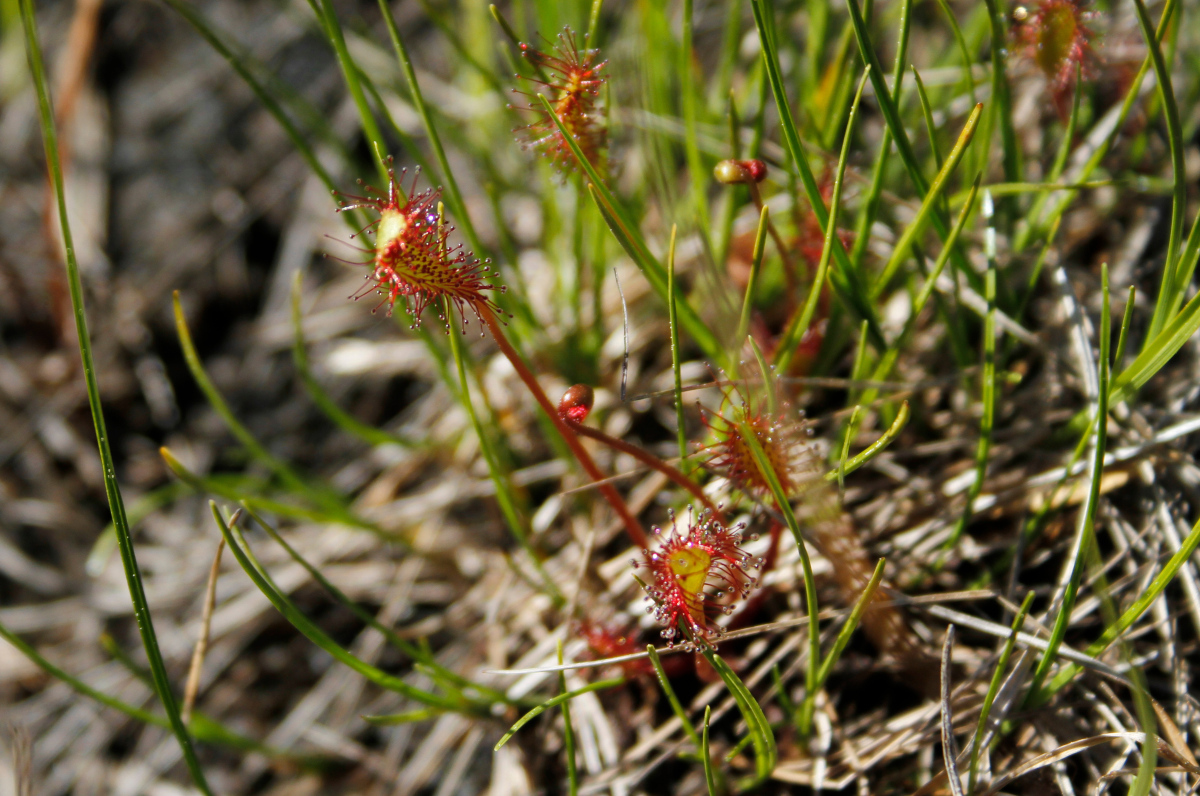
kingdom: Plantae
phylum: Tracheophyta
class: Magnoliopsida
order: Caryophyllales
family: Droseraceae
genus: Drosera
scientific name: Drosera anglica
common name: Great sundew
